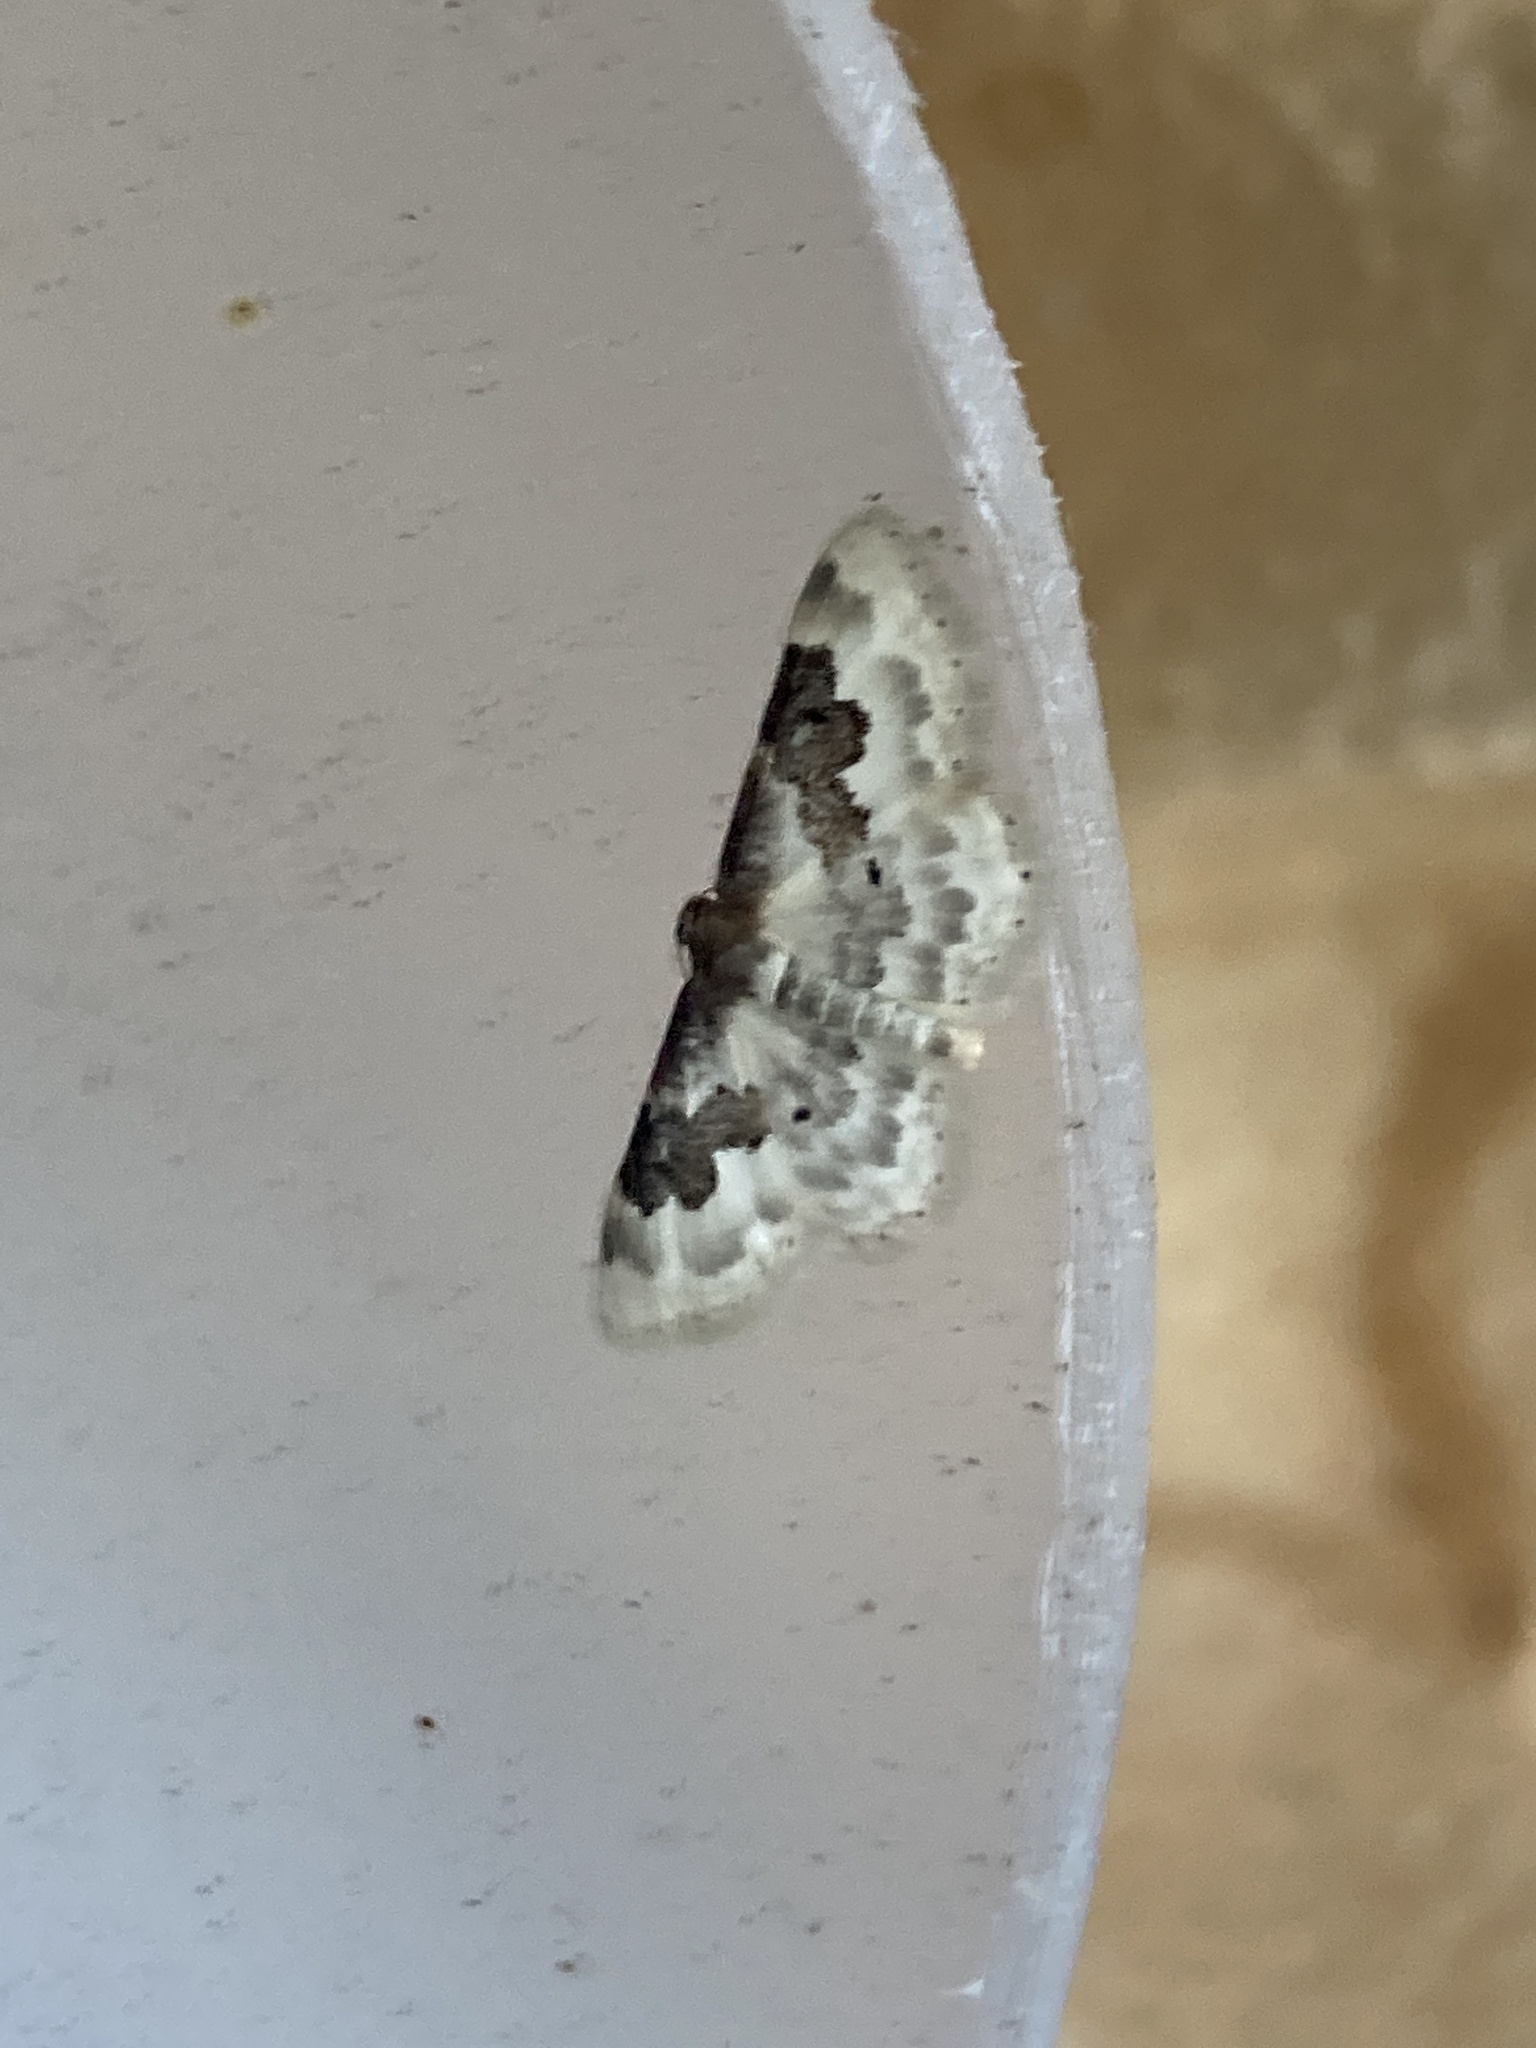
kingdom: Animalia
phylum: Arthropoda
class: Insecta
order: Lepidoptera
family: Geometridae
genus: Idaea
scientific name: Idaea rusticata
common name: Least carpet
